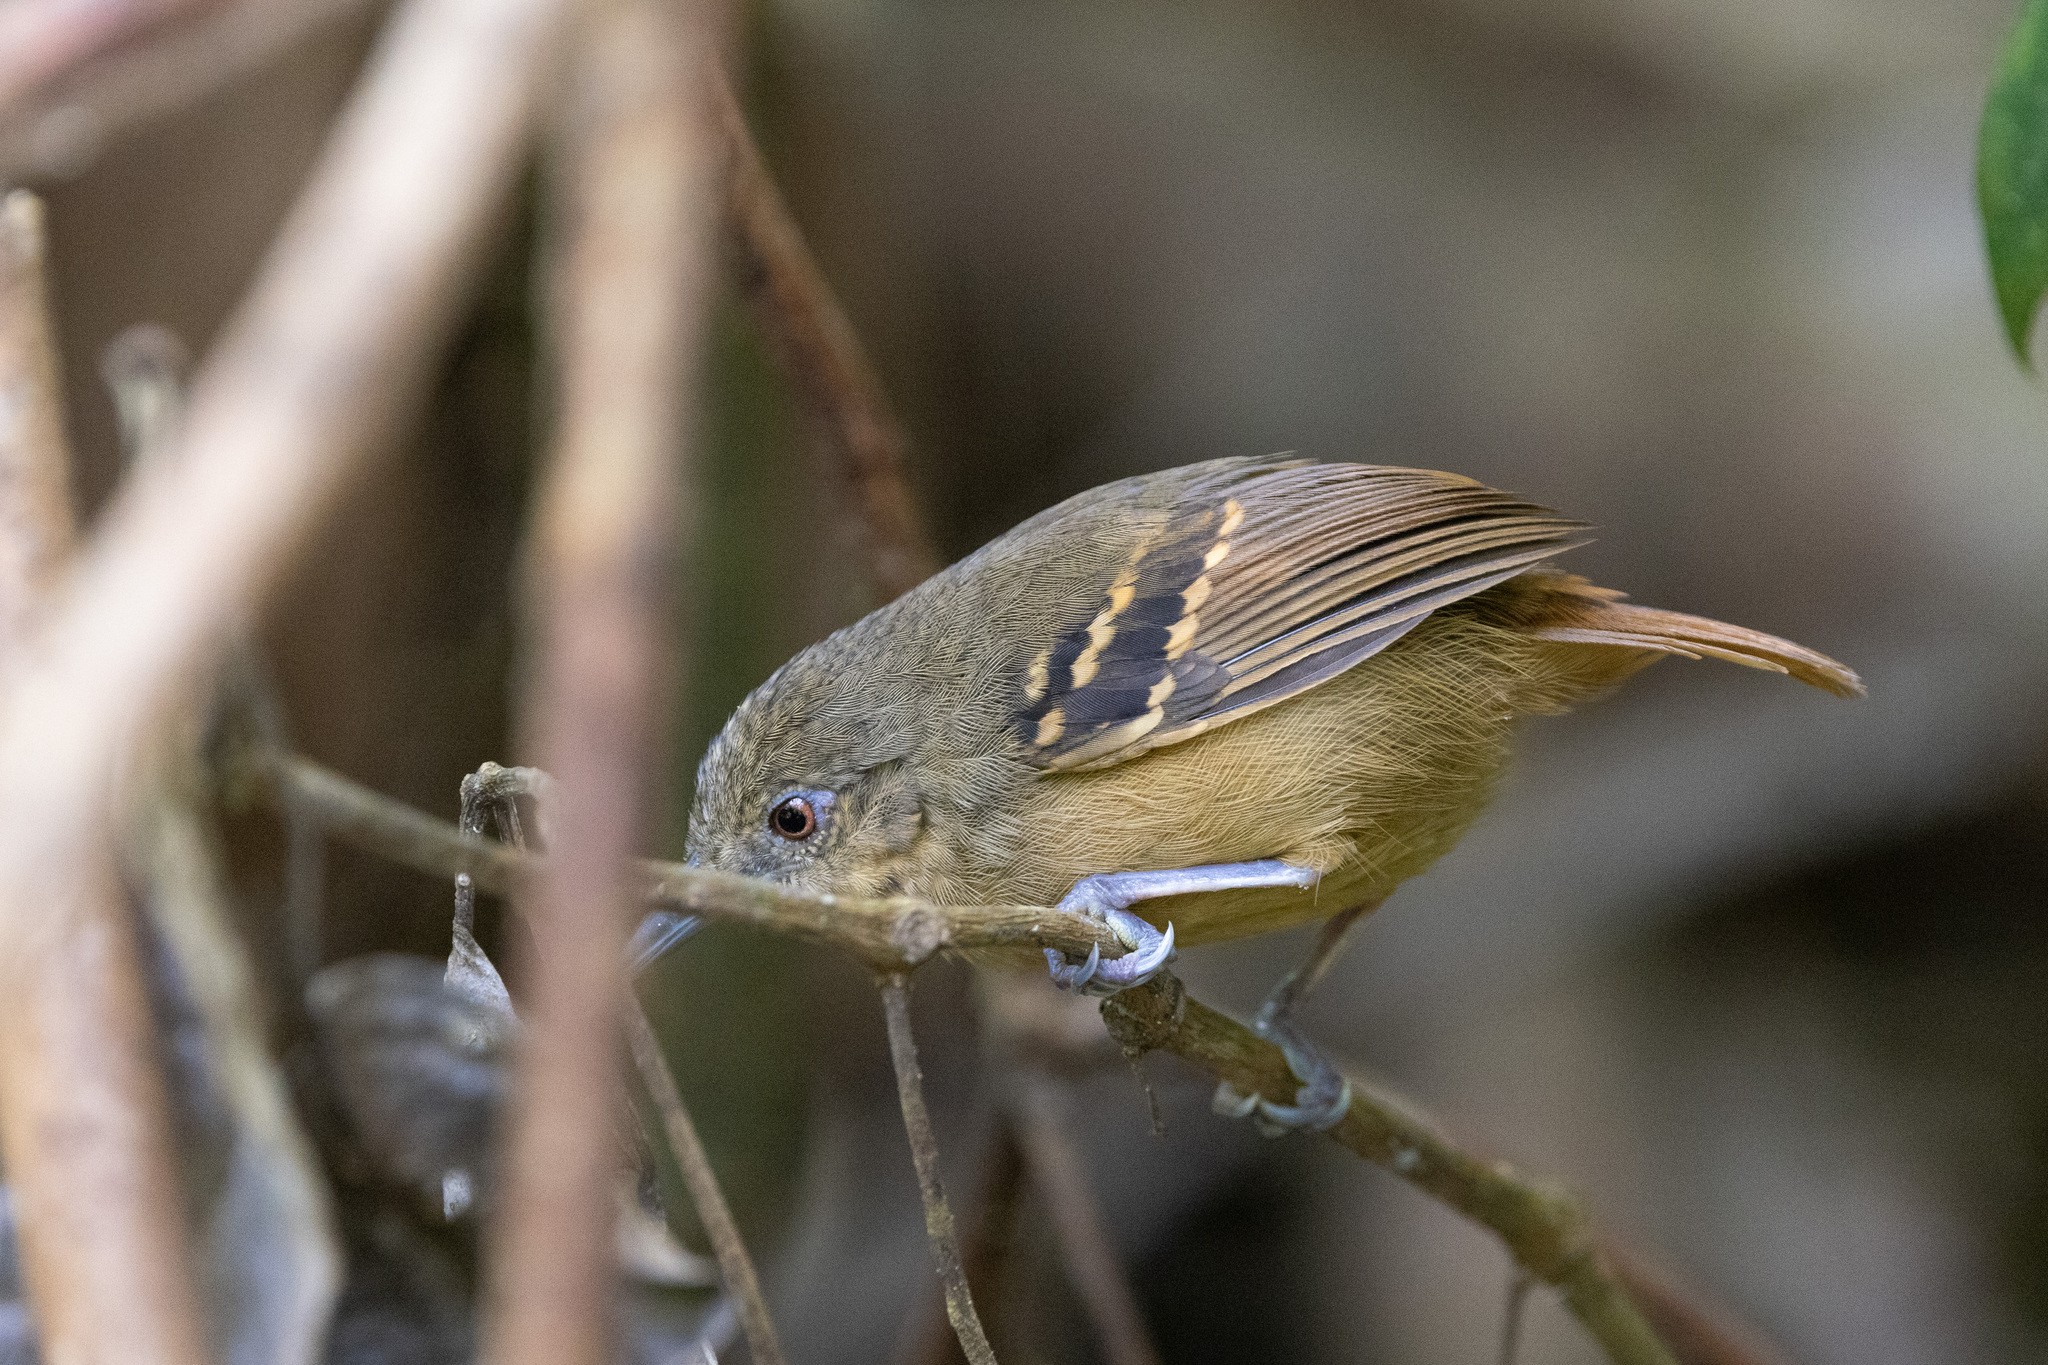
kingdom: Animalia
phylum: Chordata
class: Aves
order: Passeriformes
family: Thamnophilidae
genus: Epinecrophylla
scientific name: Epinecrophylla fulviventris
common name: Checker-throated antwren
